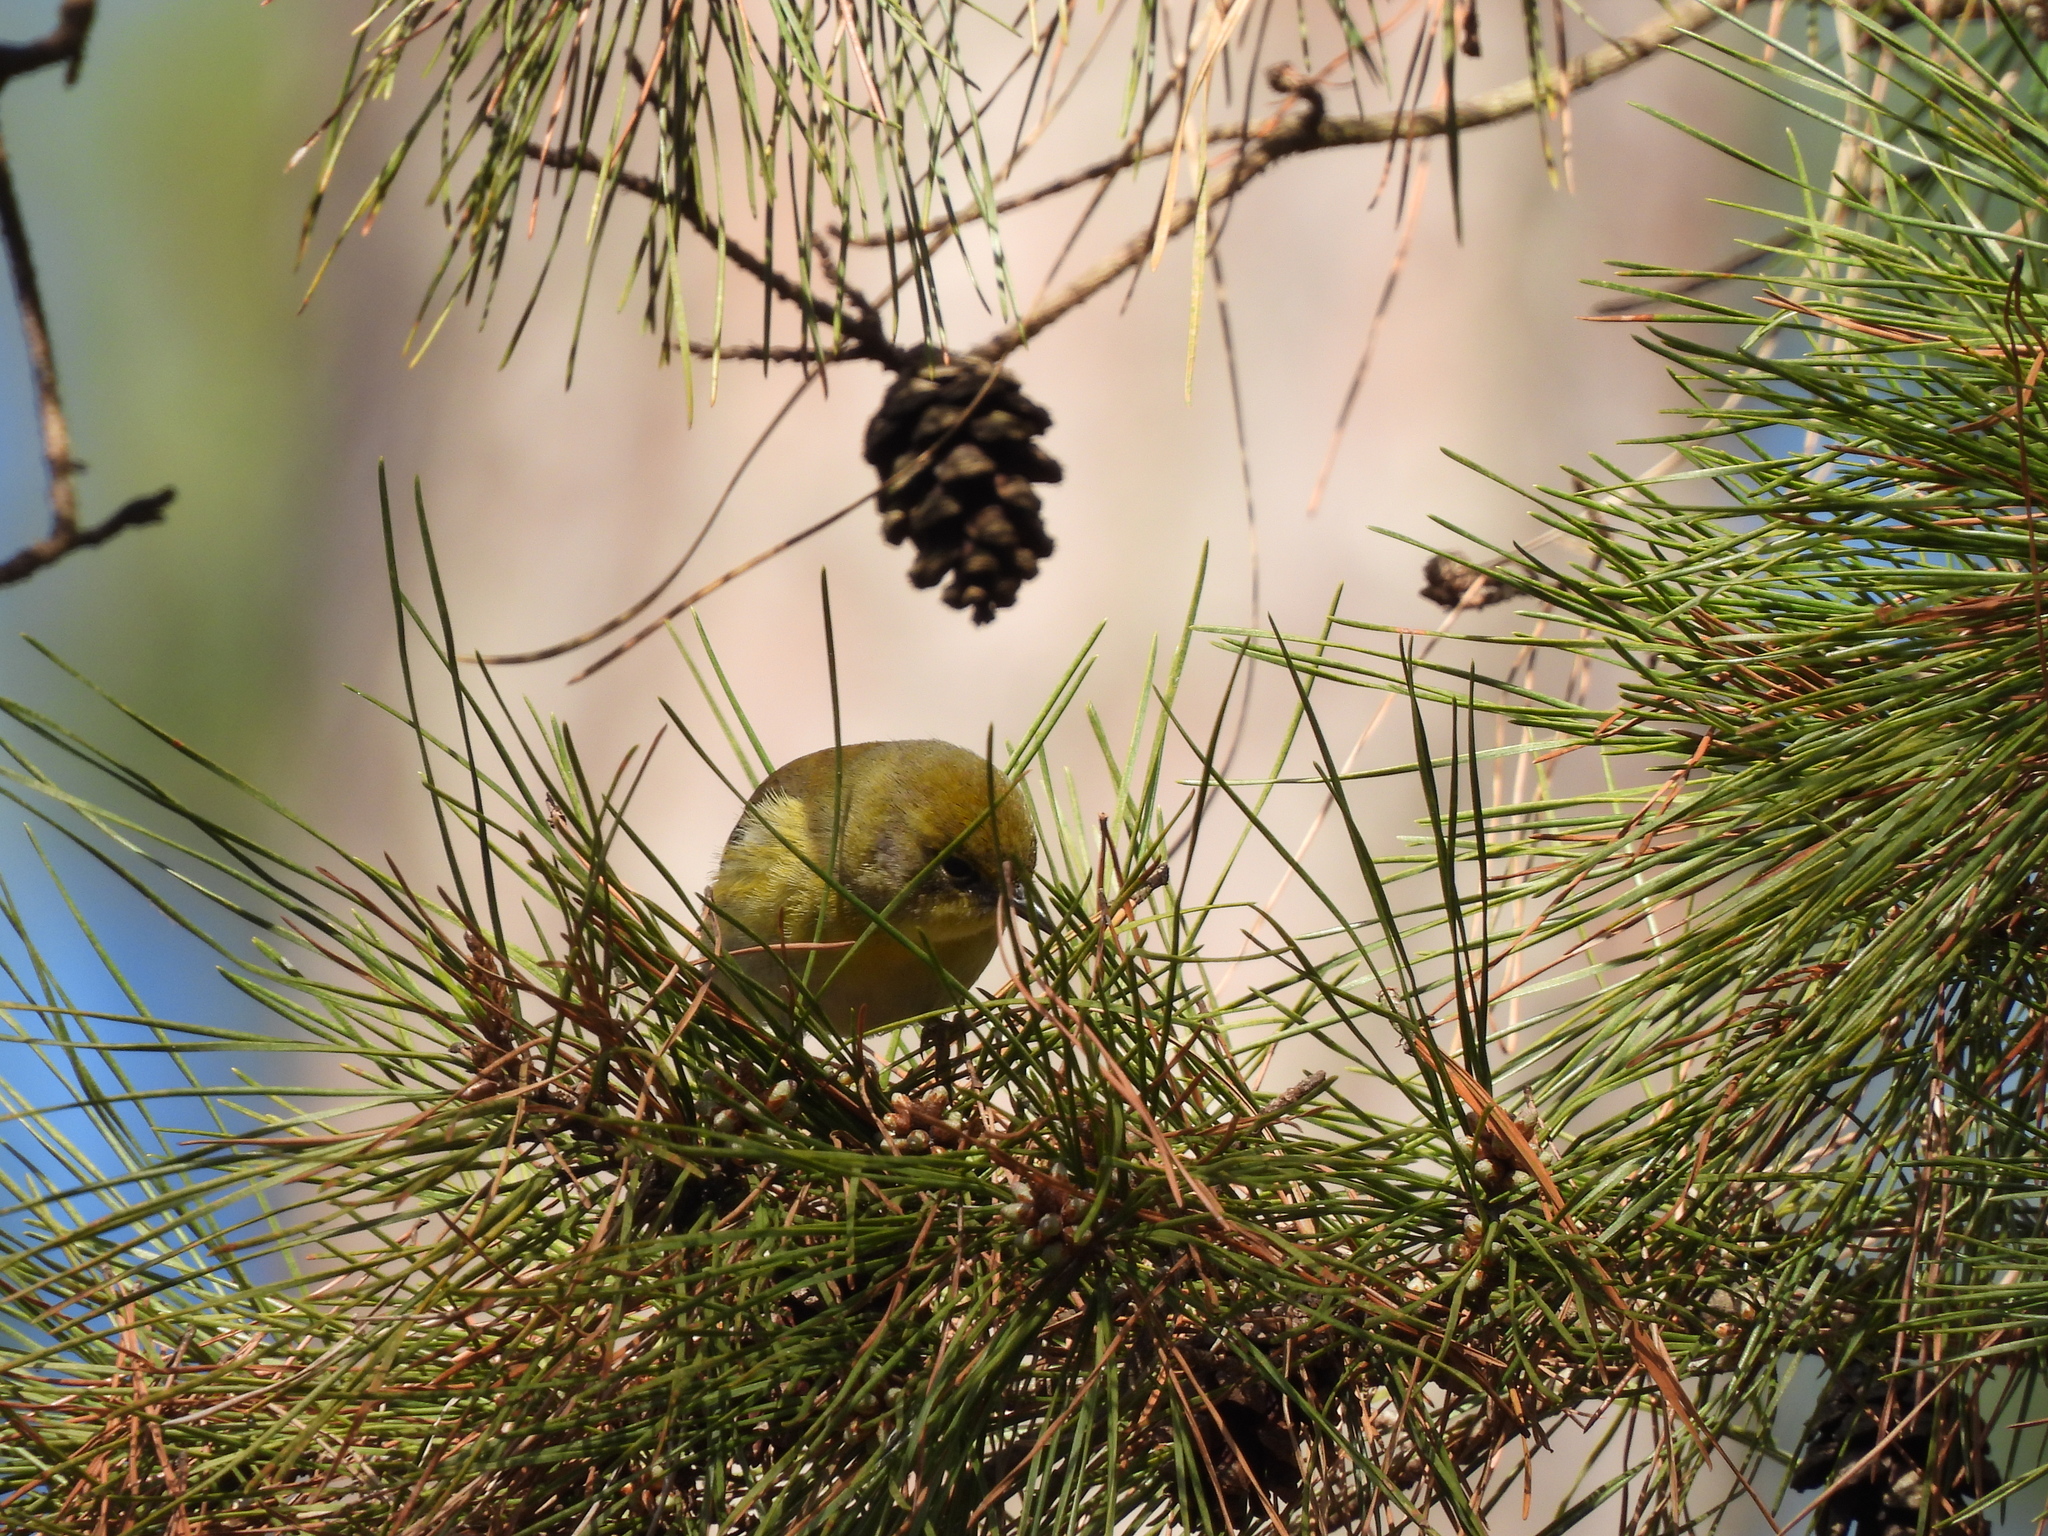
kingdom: Animalia
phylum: Chordata
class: Aves
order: Passeriformes
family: Parulidae
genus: Setophaga
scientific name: Setophaga pinus
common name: Pine warbler
